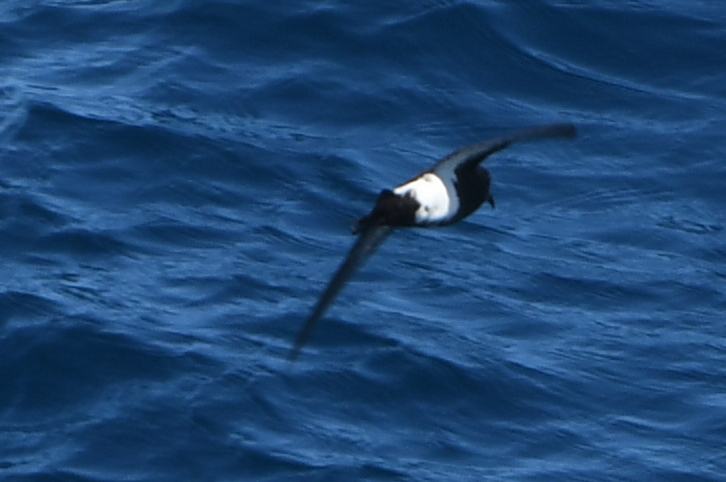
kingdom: Animalia
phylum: Chordata
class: Aves
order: Procellariiformes
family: Hydrobatidae
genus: Fregetta
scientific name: Fregetta tropica
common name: Black-bellied storm-petrel
